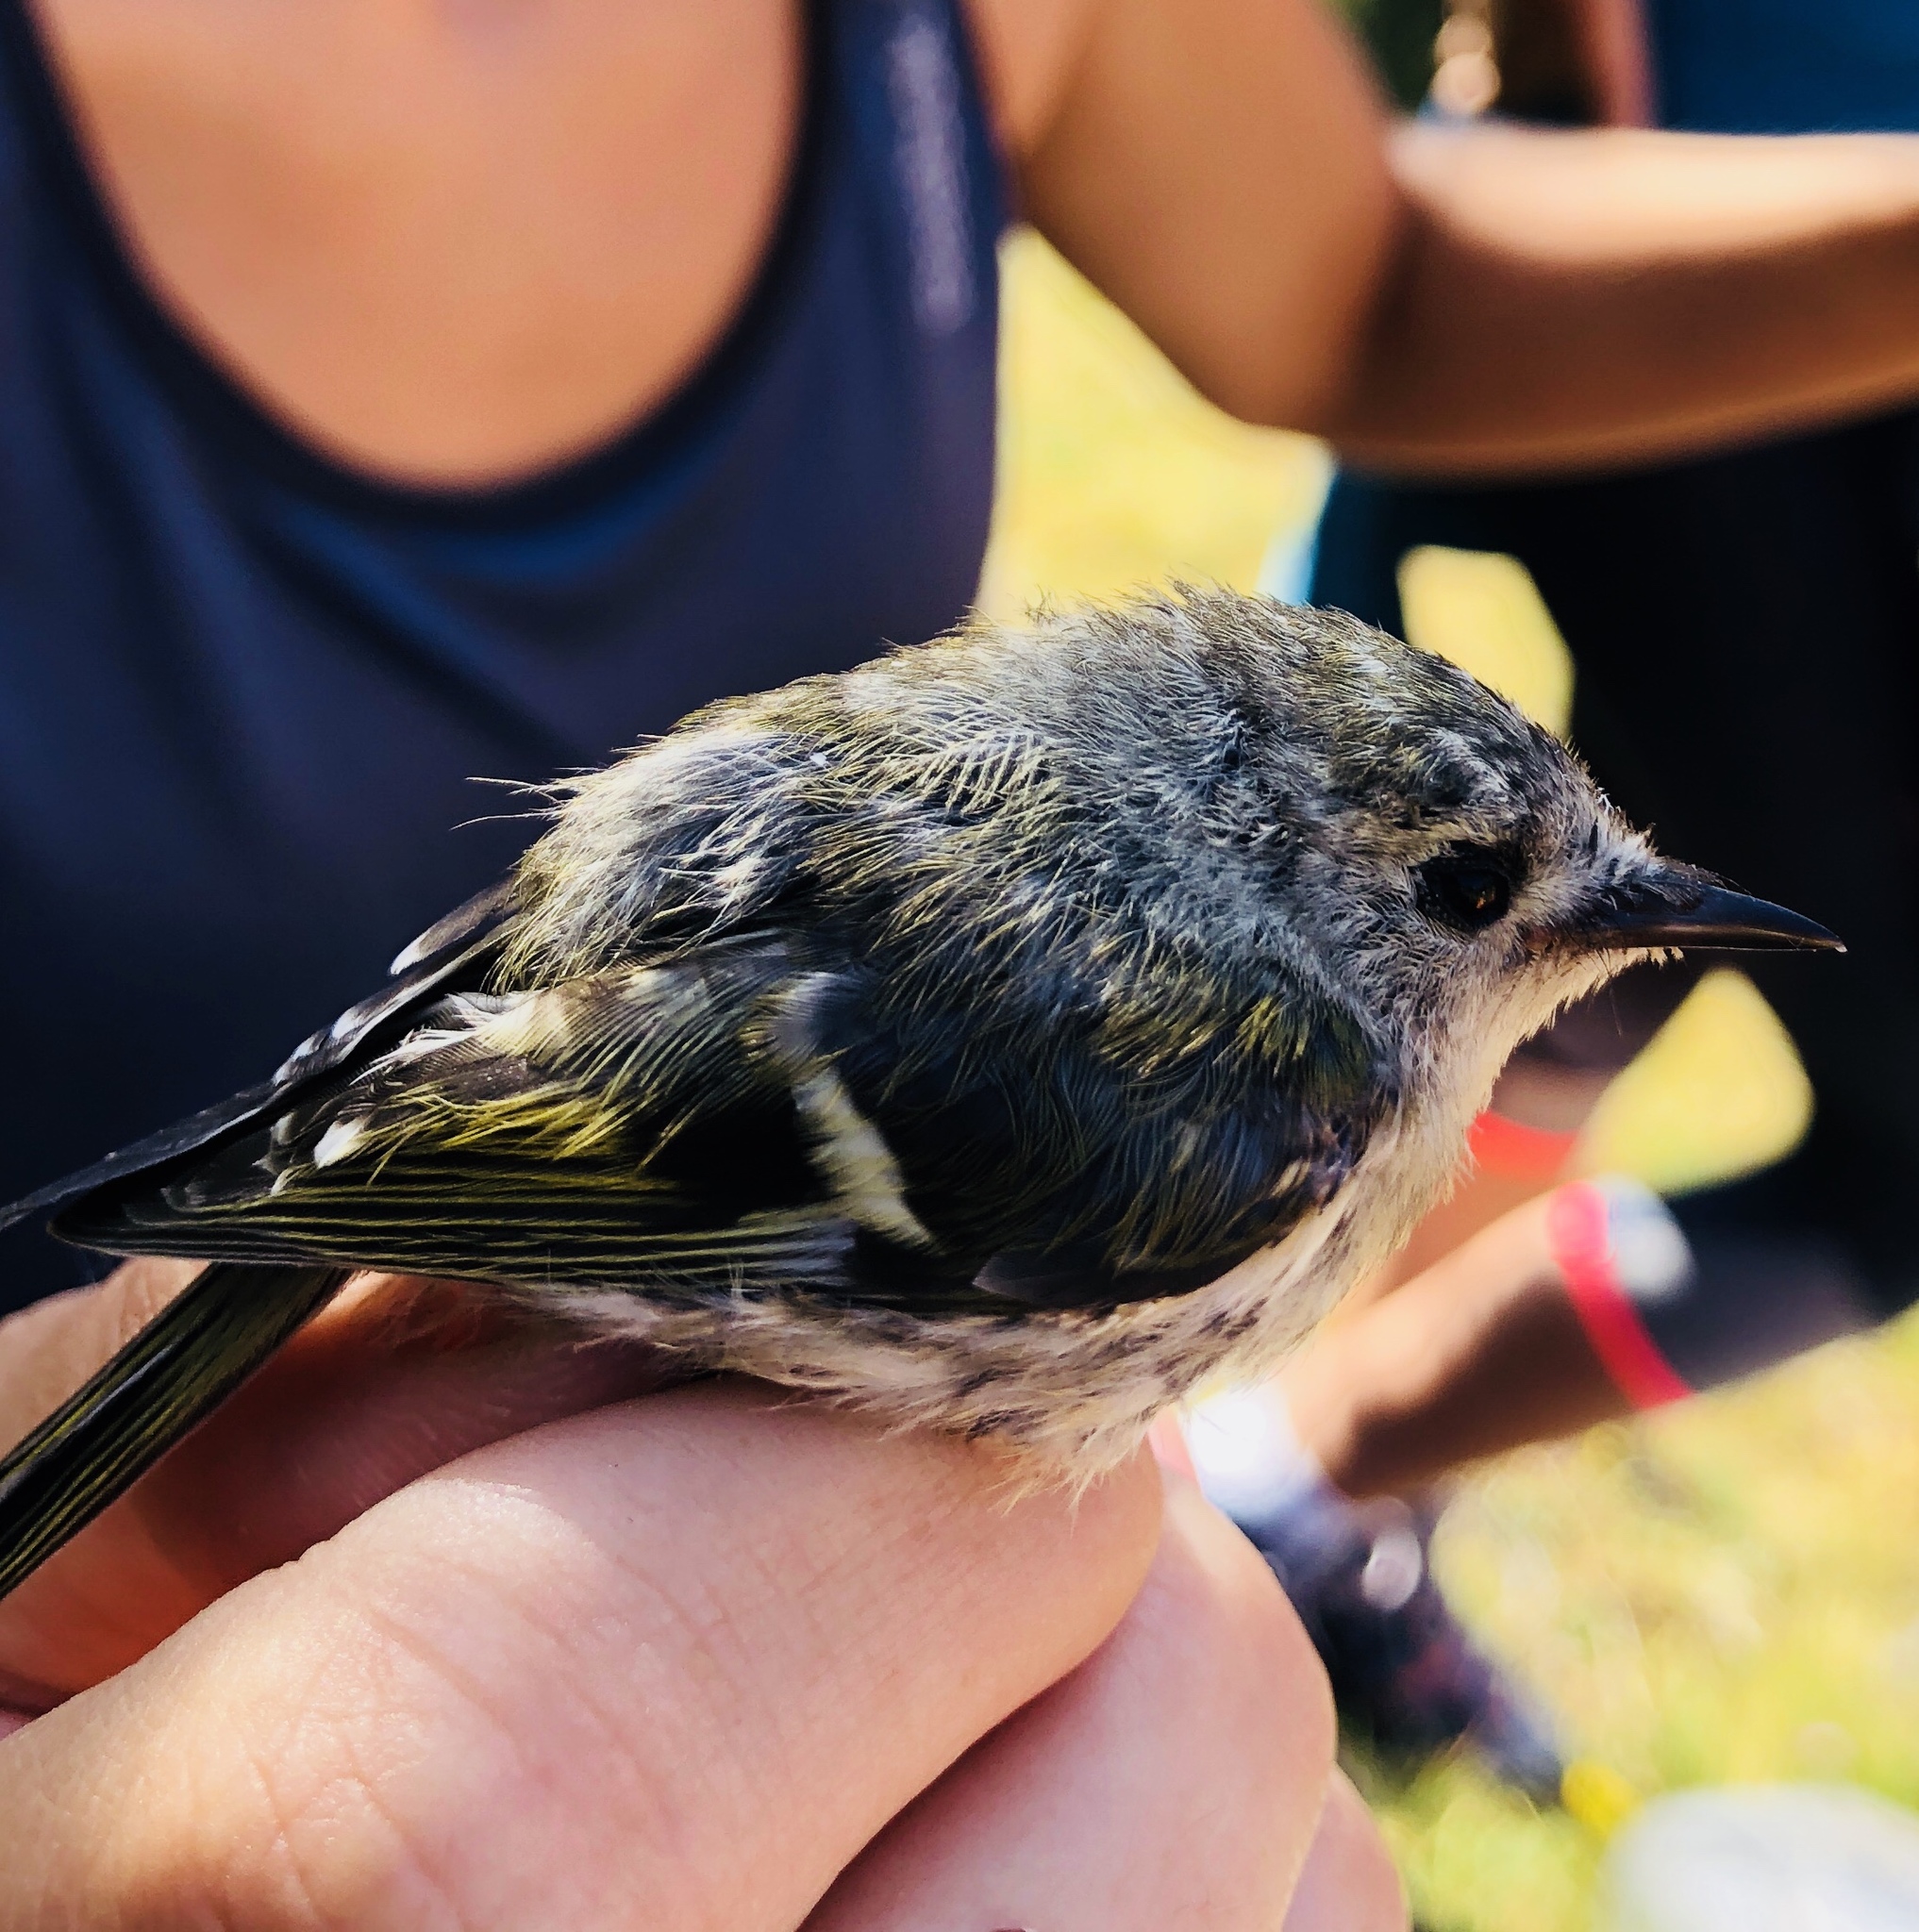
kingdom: Animalia
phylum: Chordata
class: Aves
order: Passeriformes
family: Regulidae
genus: Regulus
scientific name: Regulus regulus
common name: Goldcrest
